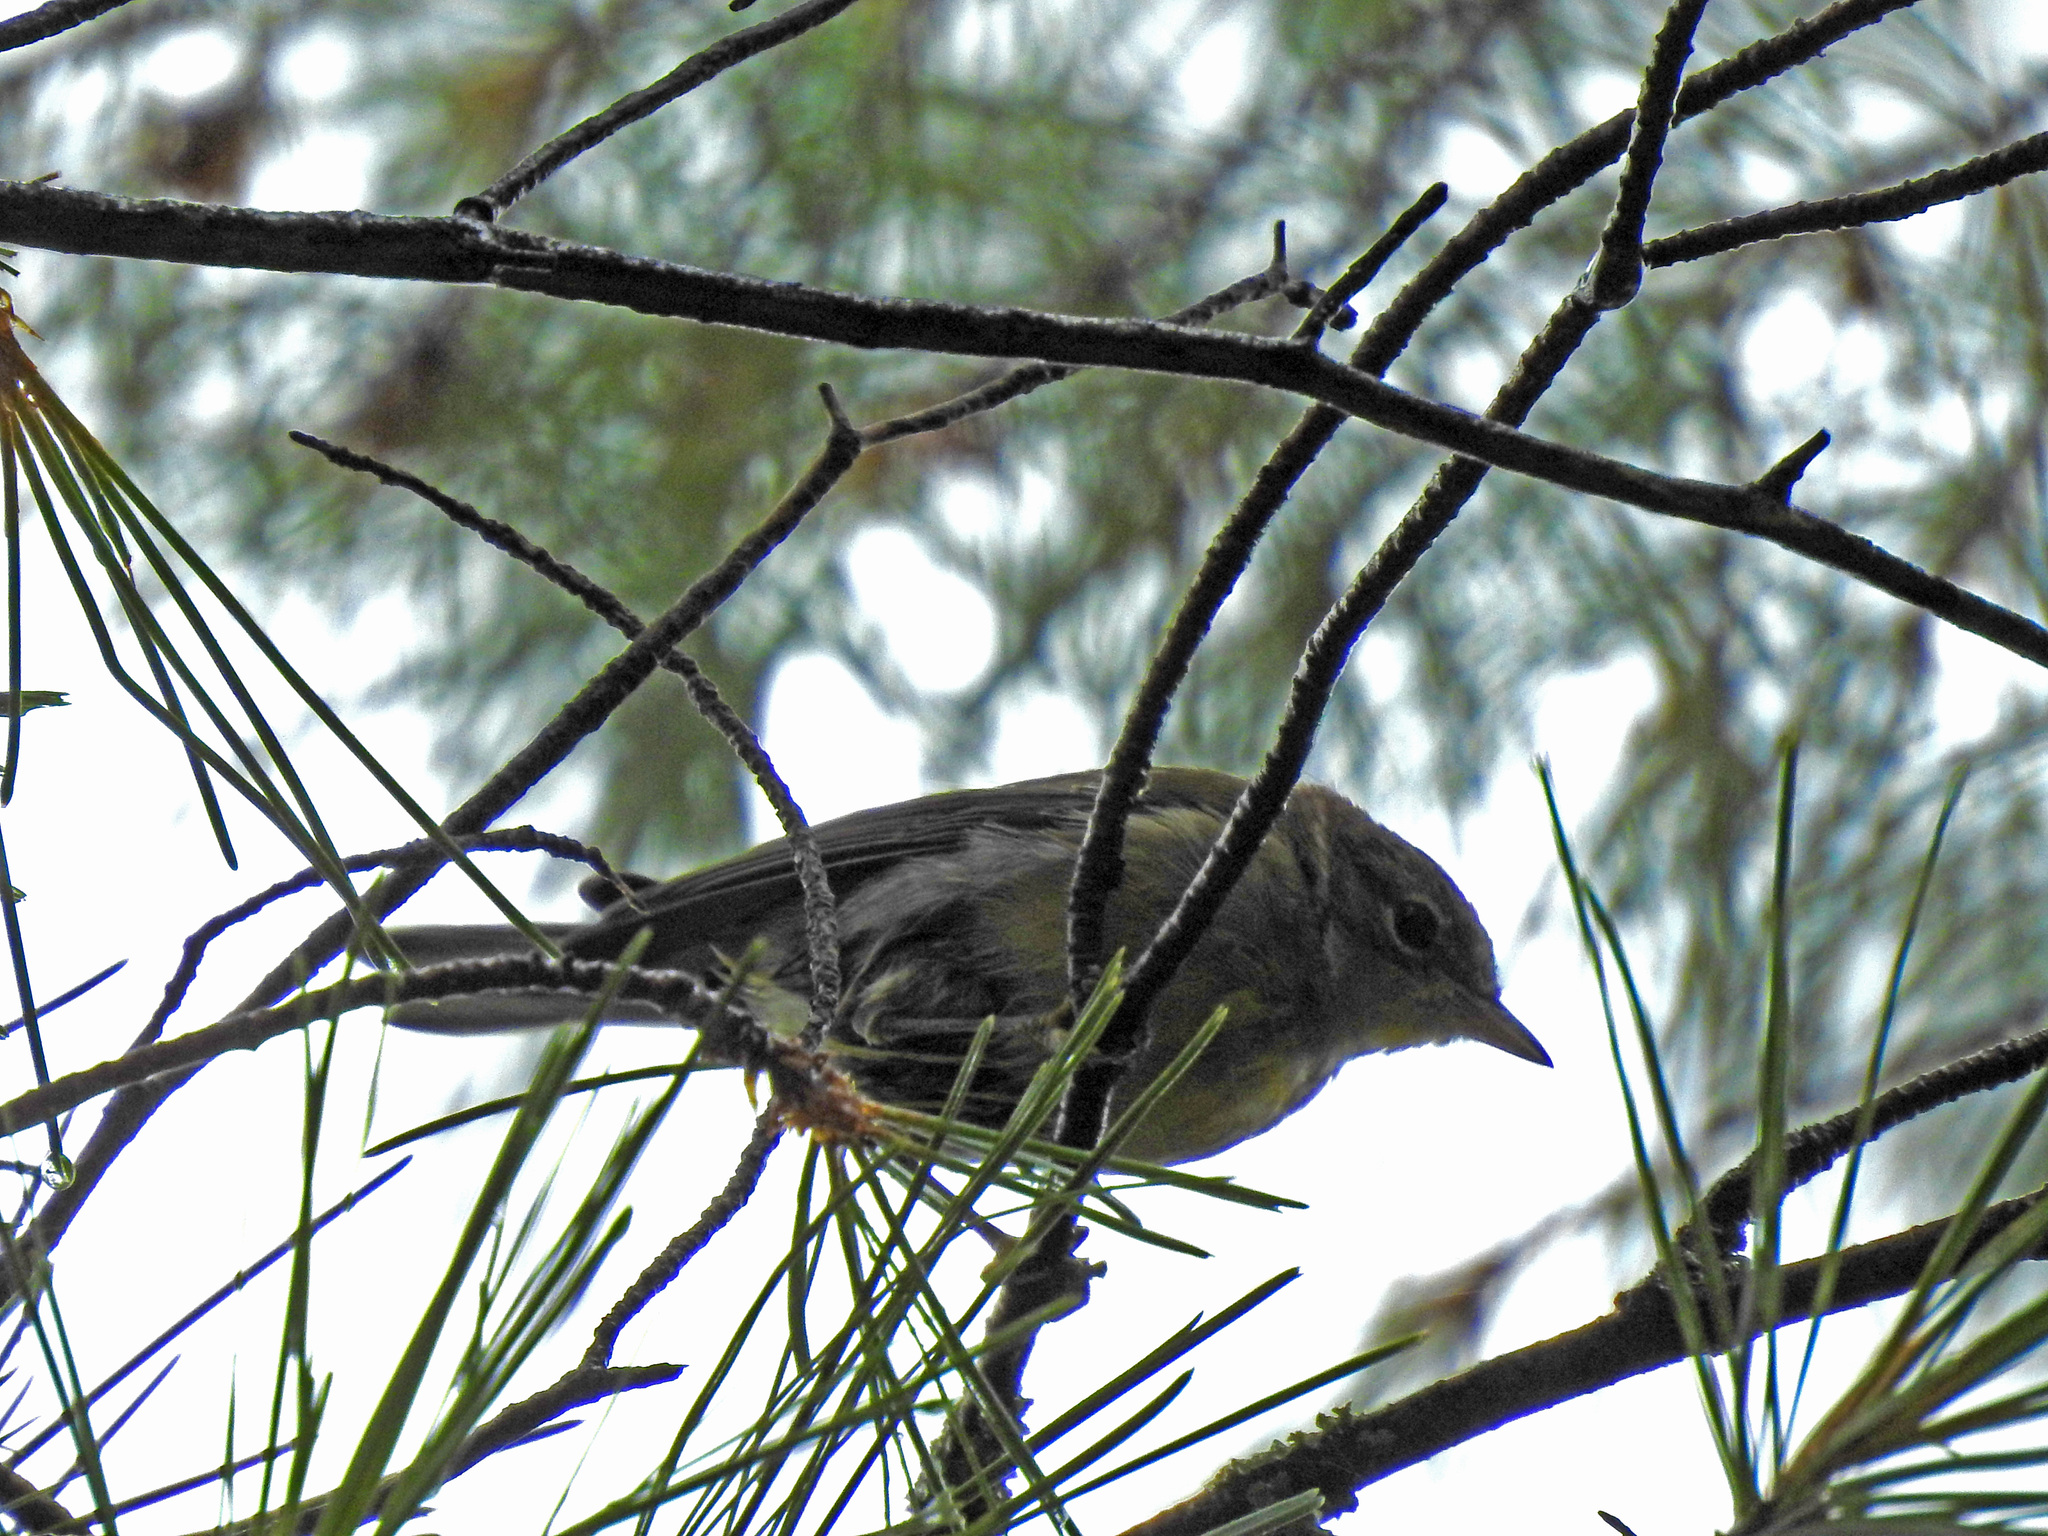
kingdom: Animalia
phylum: Chordata
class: Aves
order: Passeriformes
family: Parulidae
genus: Setophaga
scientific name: Setophaga pinus
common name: Pine warbler
